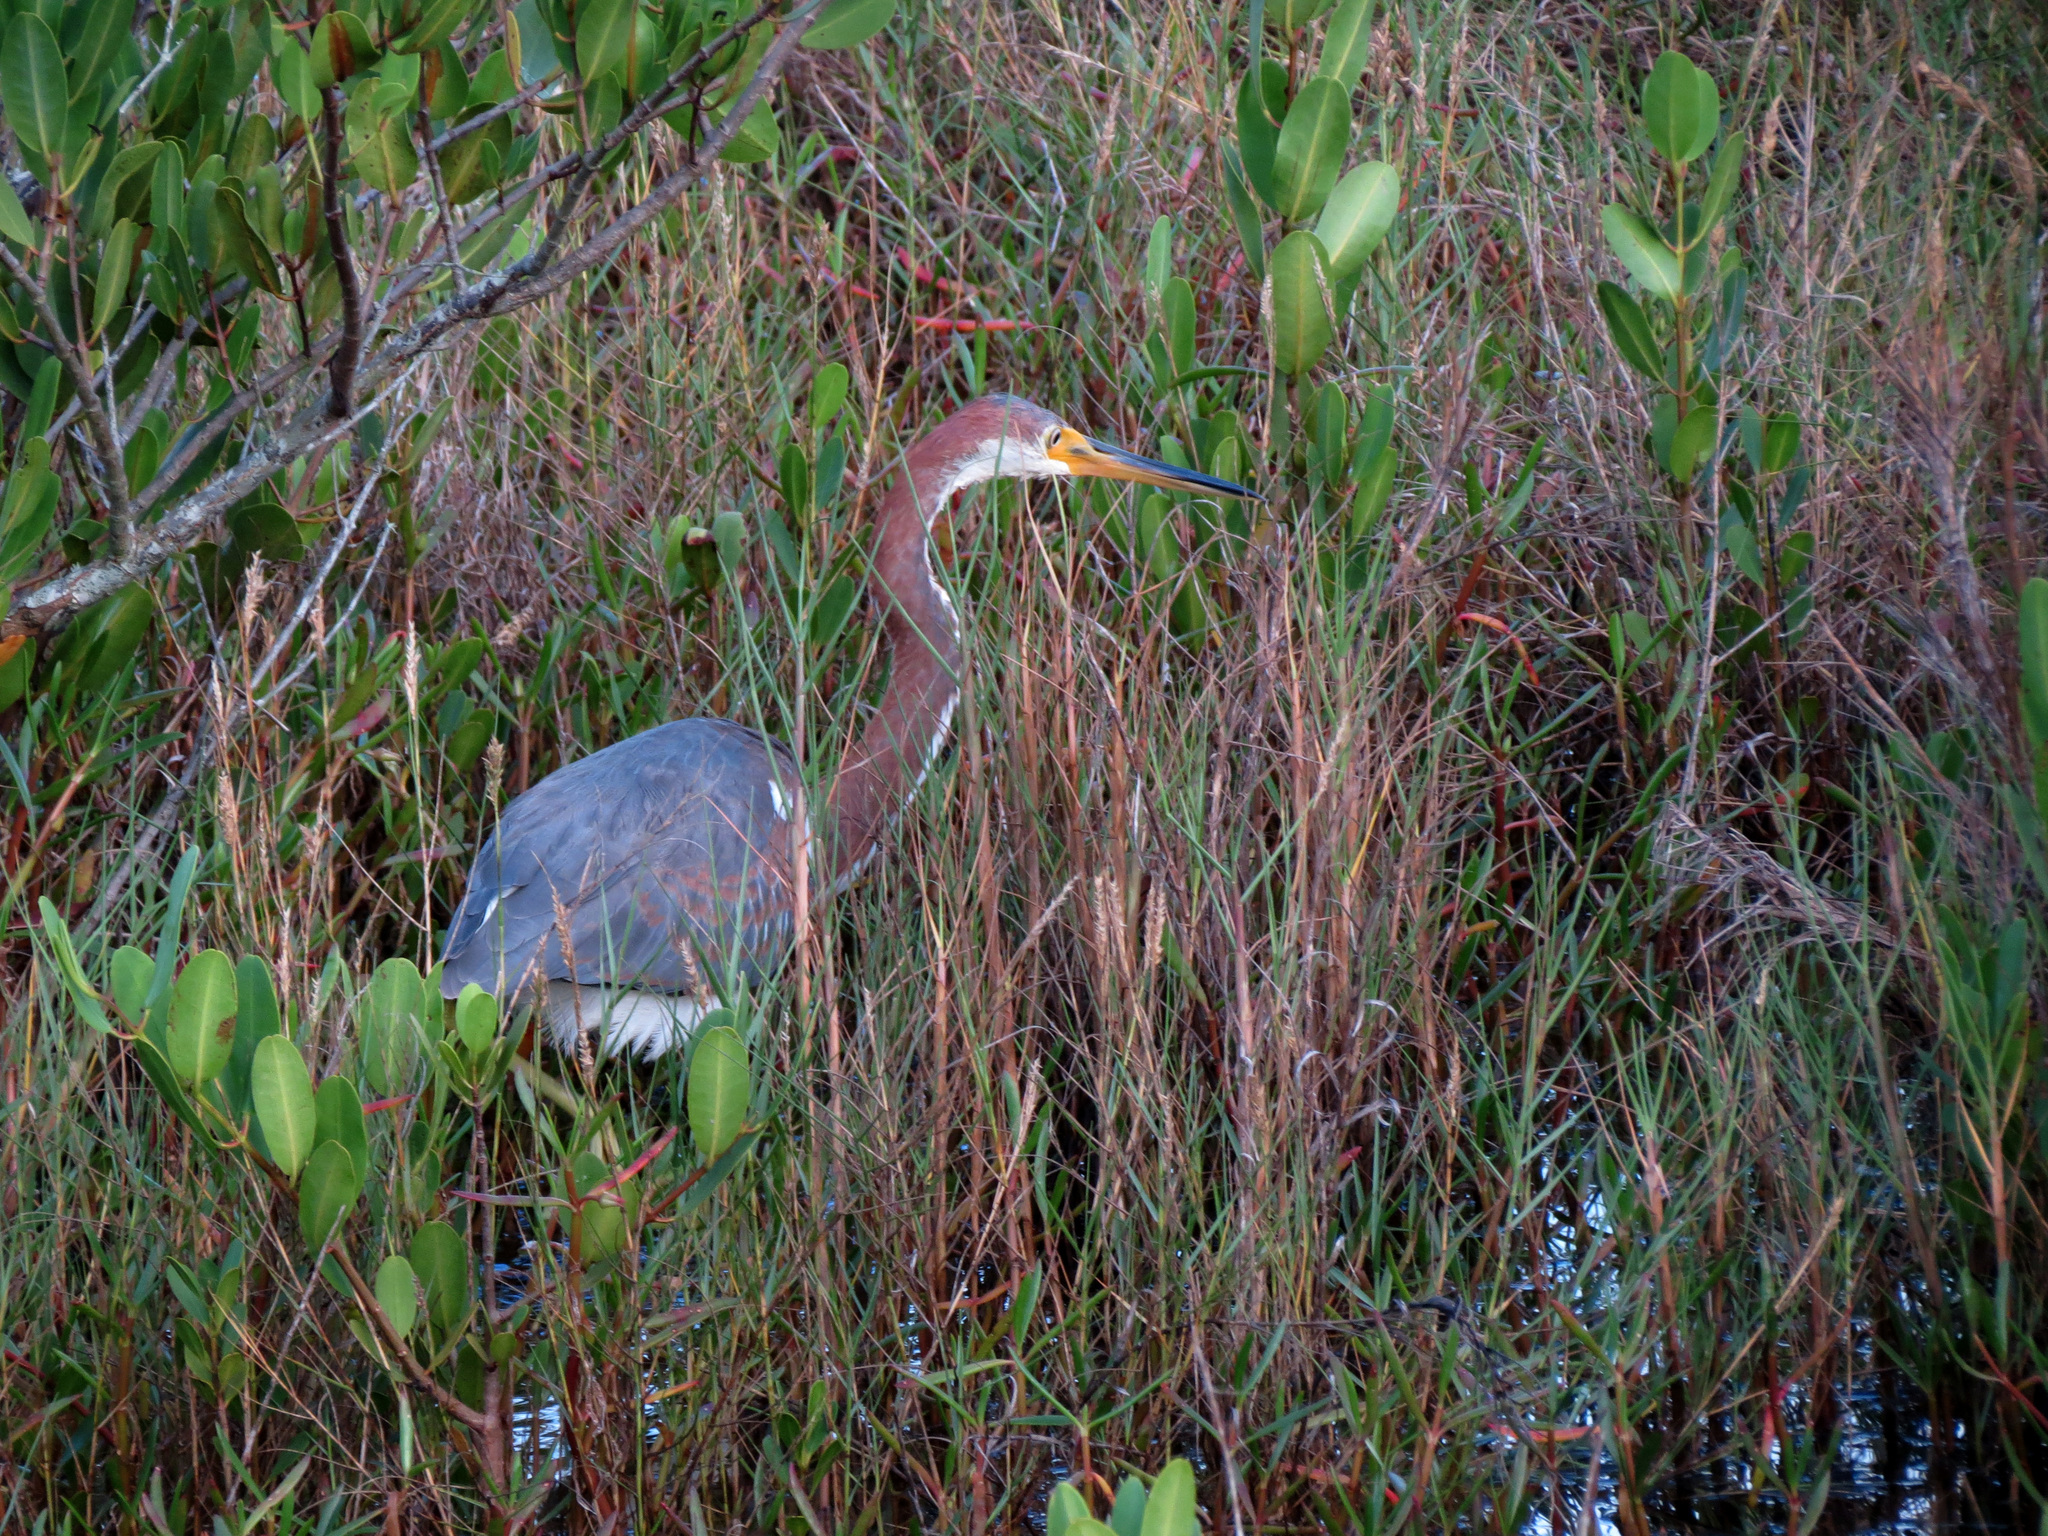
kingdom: Animalia
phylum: Chordata
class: Aves
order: Pelecaniformes
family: Ardeidae
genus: Egretta
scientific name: Egretta tricolor
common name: Tricolored heron
